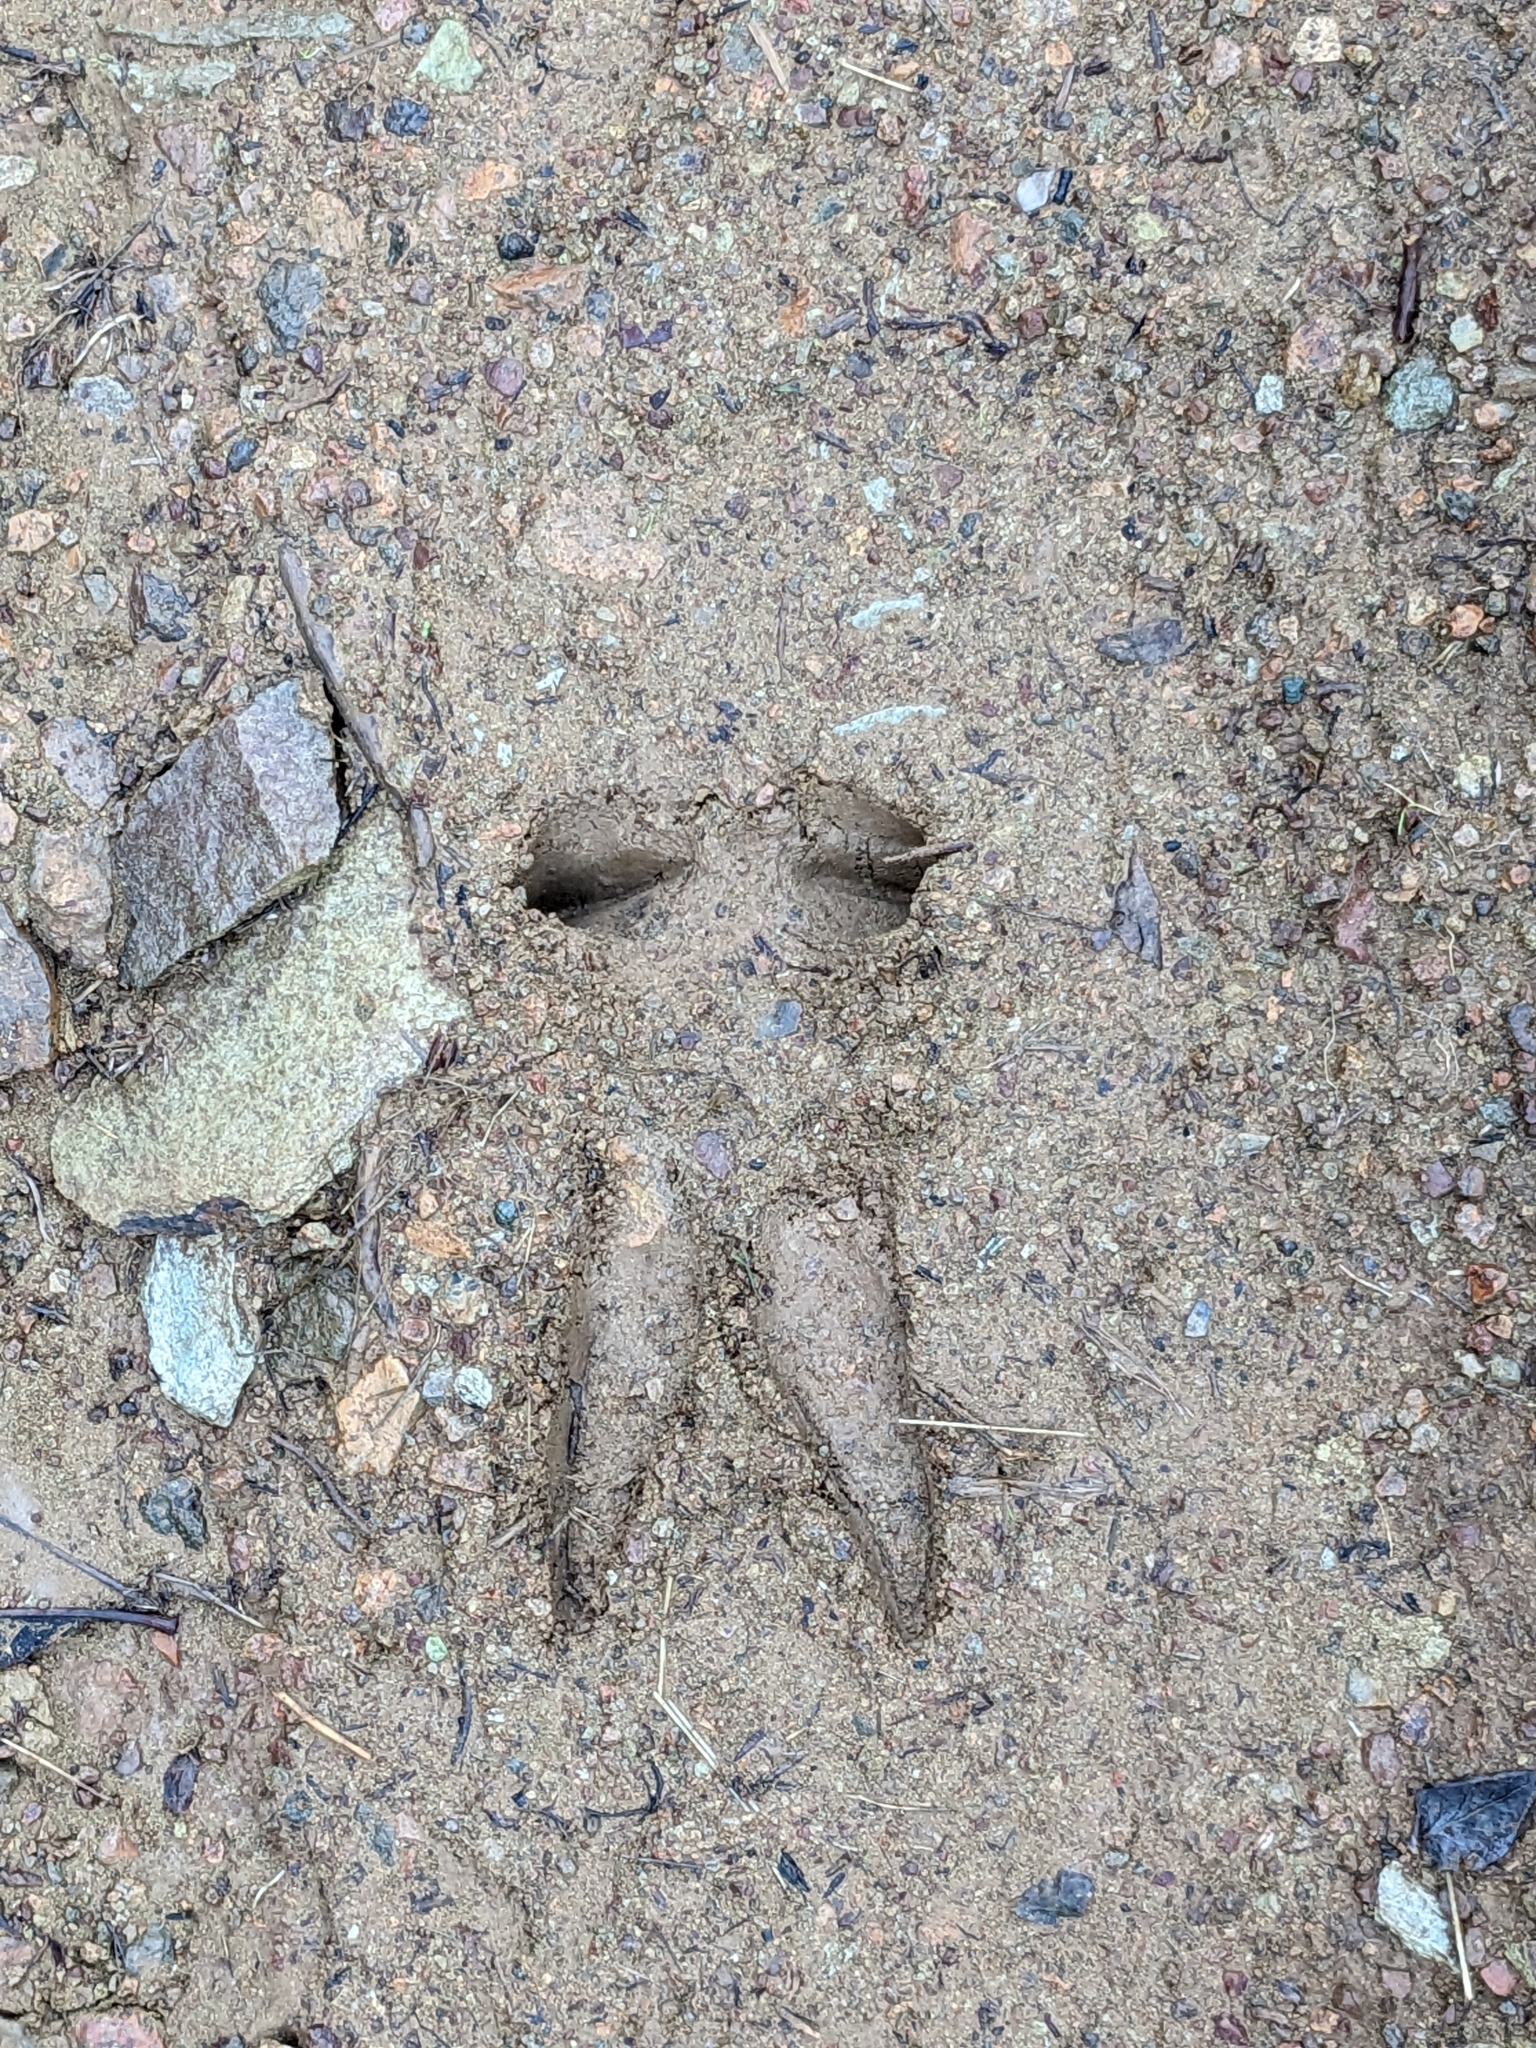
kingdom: Animalia
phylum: Chordata
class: Mammalia
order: Artiodactyla
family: Cervidae
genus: Odocoileus
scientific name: Odocoileus hemionus
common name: Mule deer
